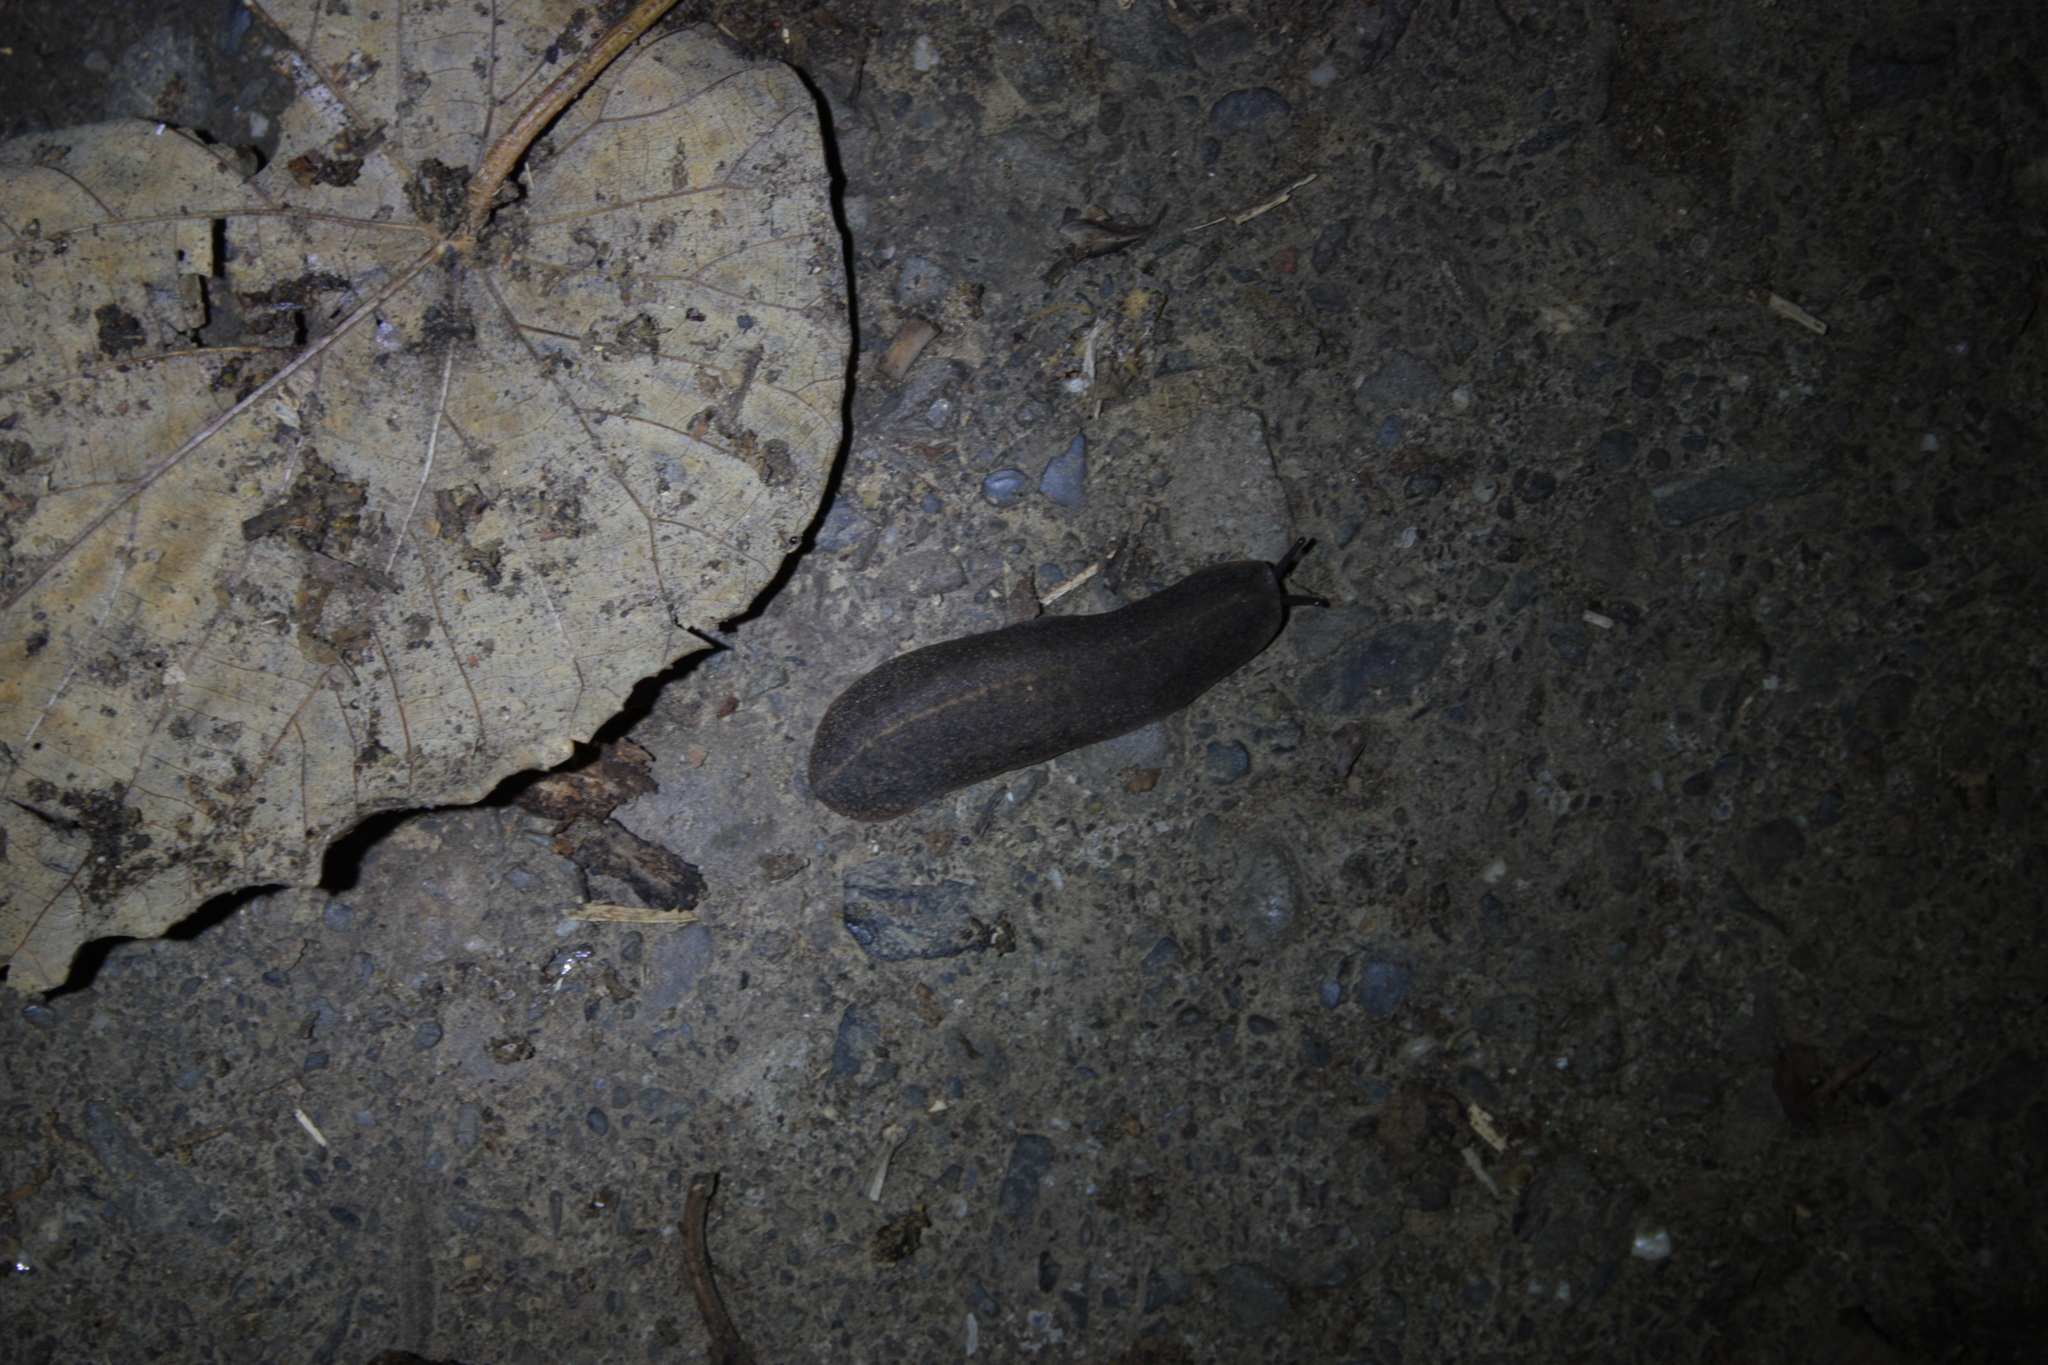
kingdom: Animalia
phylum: Mollusca
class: Gastropoda
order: Systellommatophora
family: Veronicellidae
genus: Laevicaulis
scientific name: Laevicaulis alte
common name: Tropical leatherleaf
